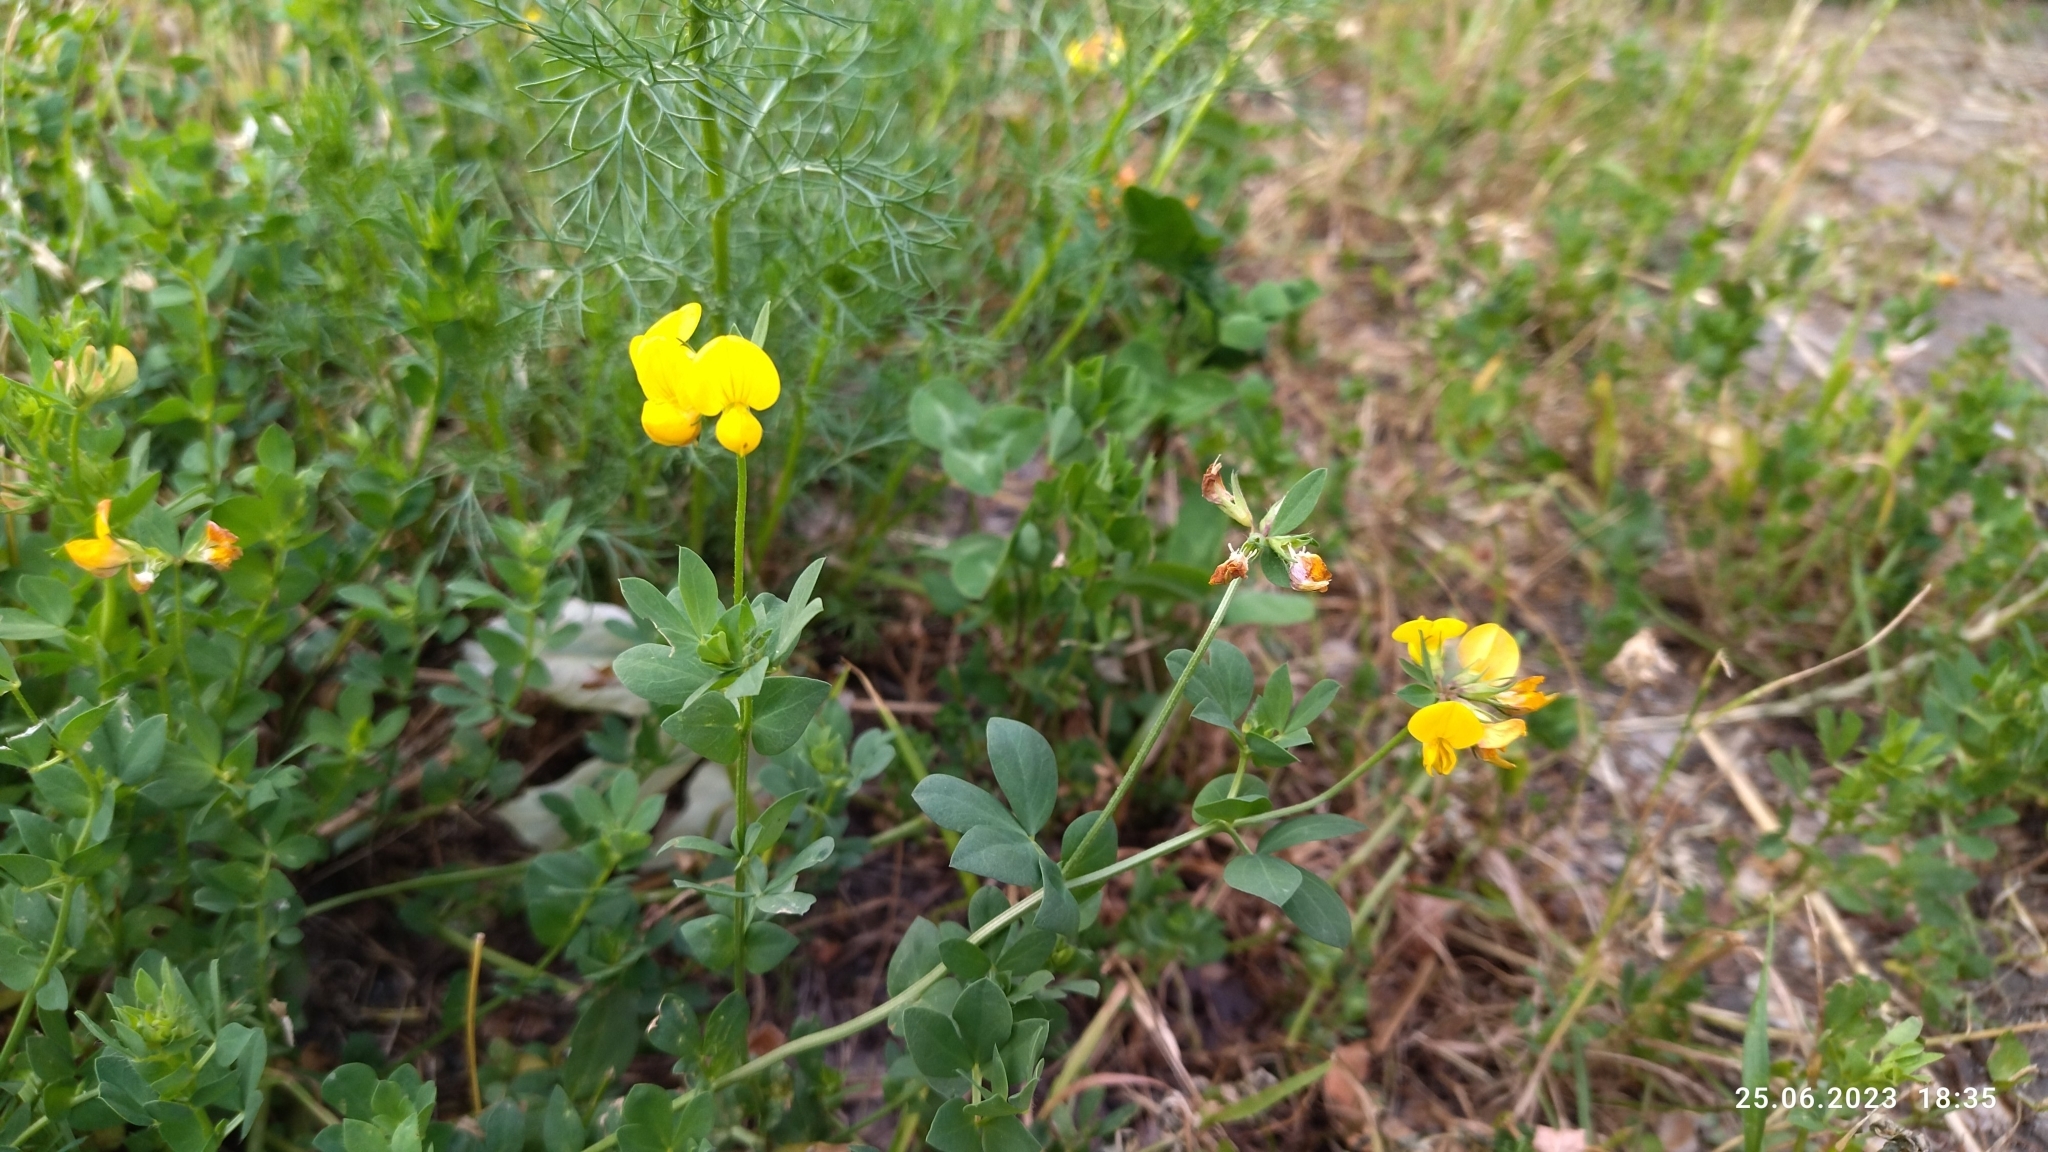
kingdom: Plantae
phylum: Tracheophyta
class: Magnoliopsida
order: Fabales
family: Fabaceae
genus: Lotus
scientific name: Lotus corniculatus
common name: Common bird's-foot-trefoil
